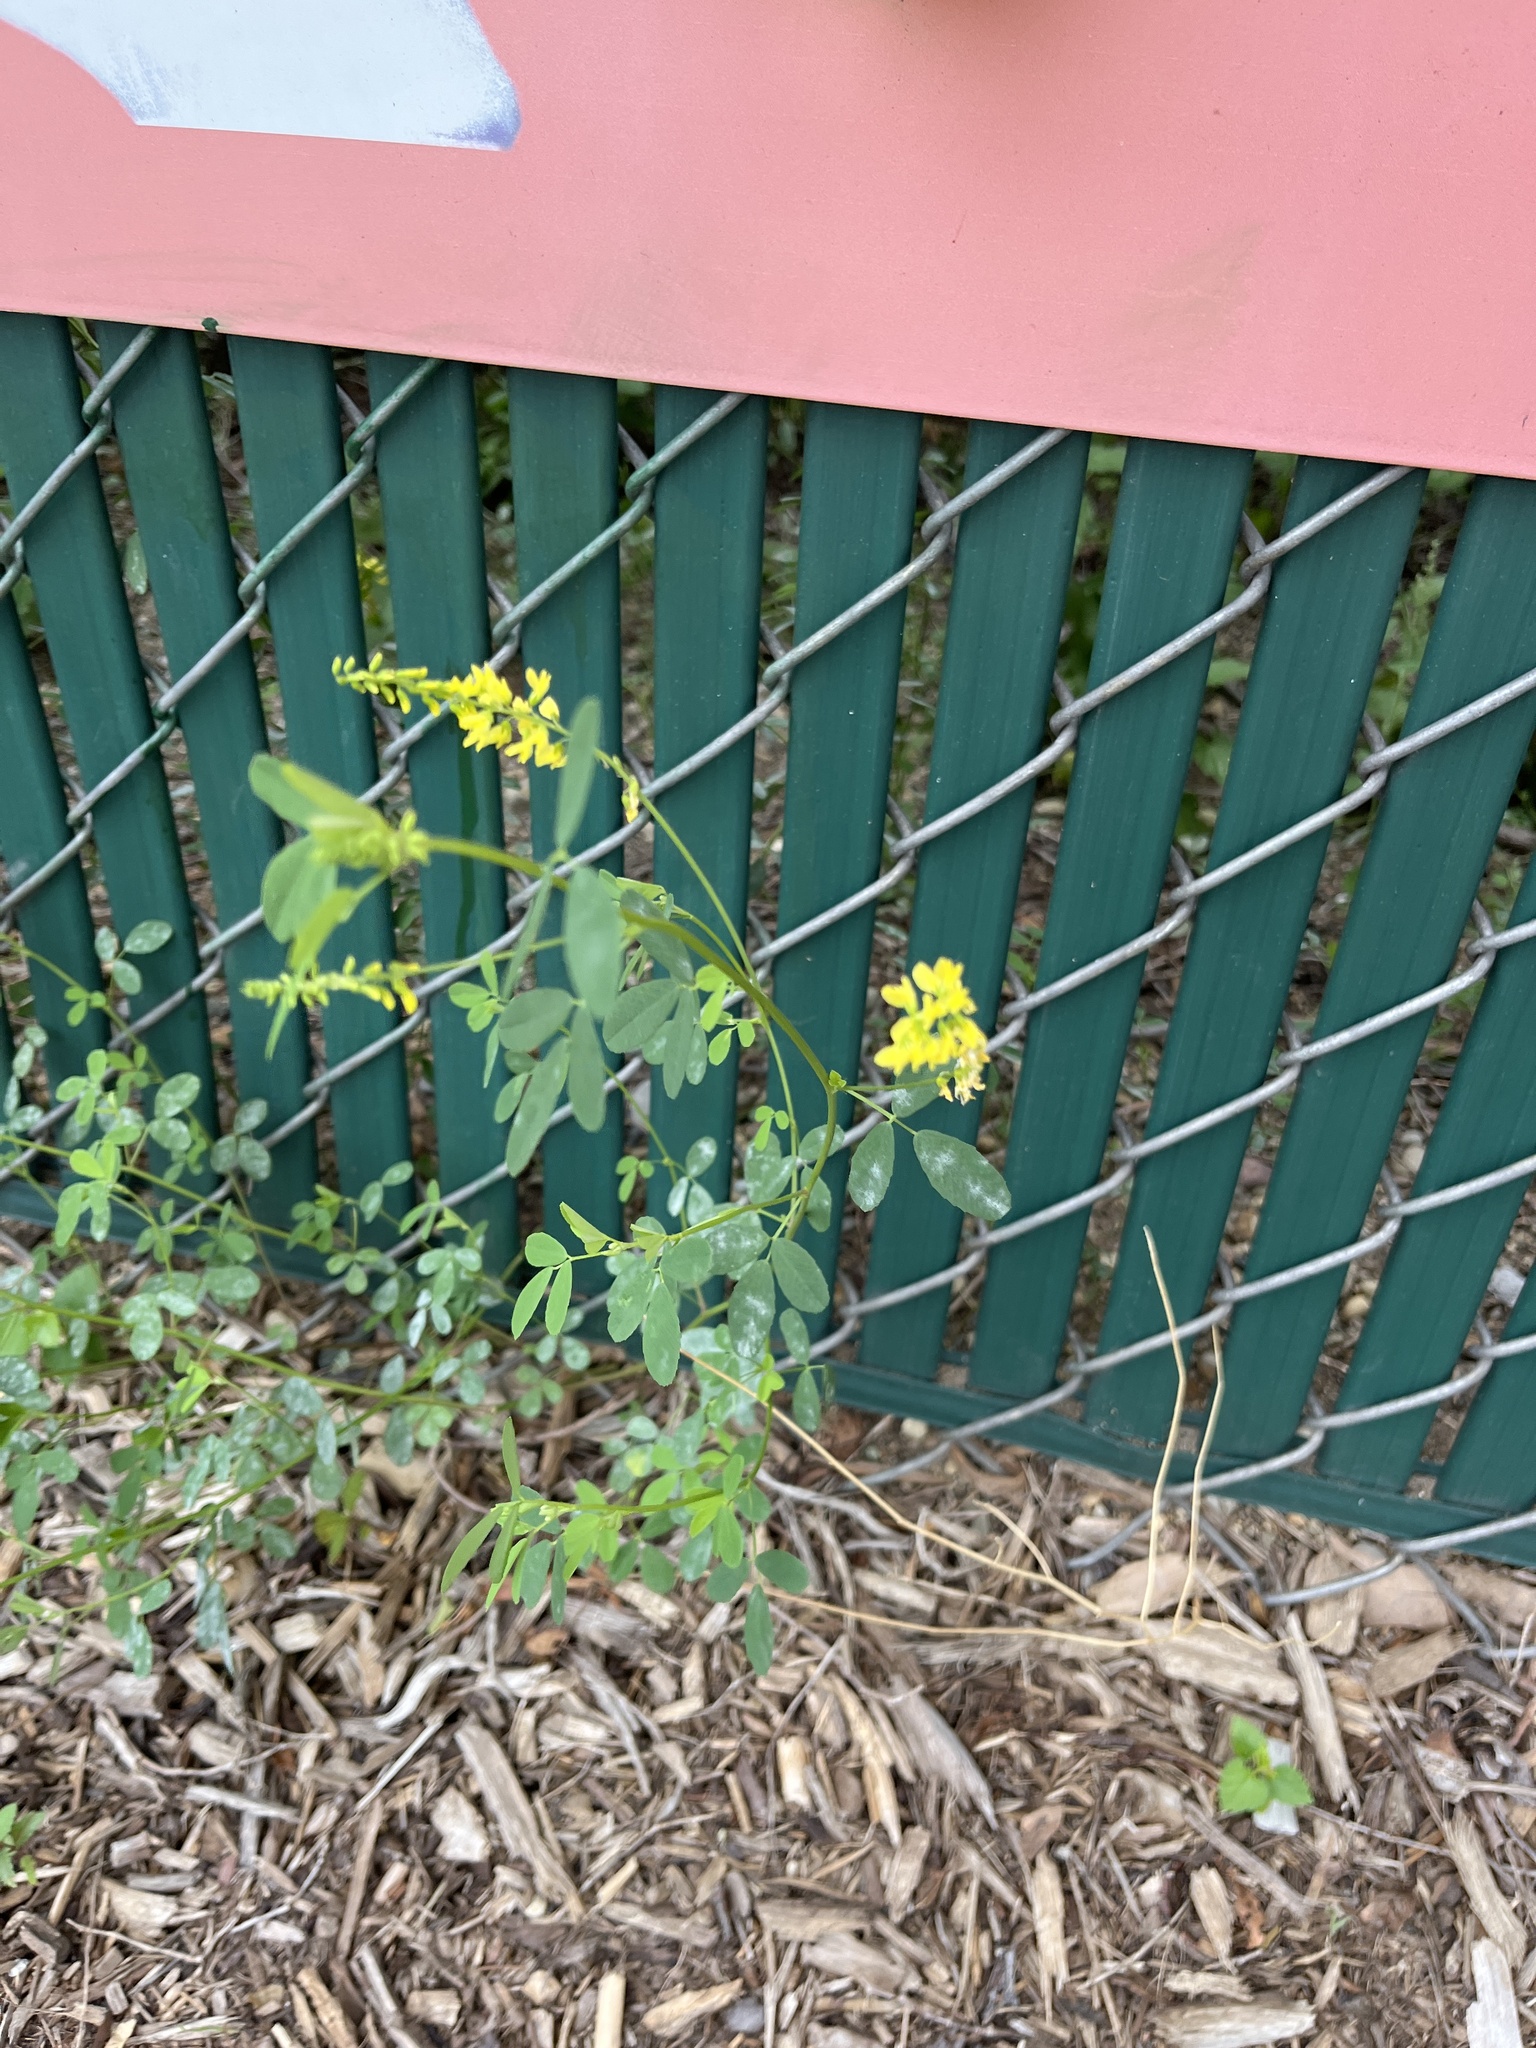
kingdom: Plantae
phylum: Tracheophyta
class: Magnoliopsida
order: Fabales
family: Fabaceae
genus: Melilotus
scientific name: Melilotus officinalis
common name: Sweetclover
